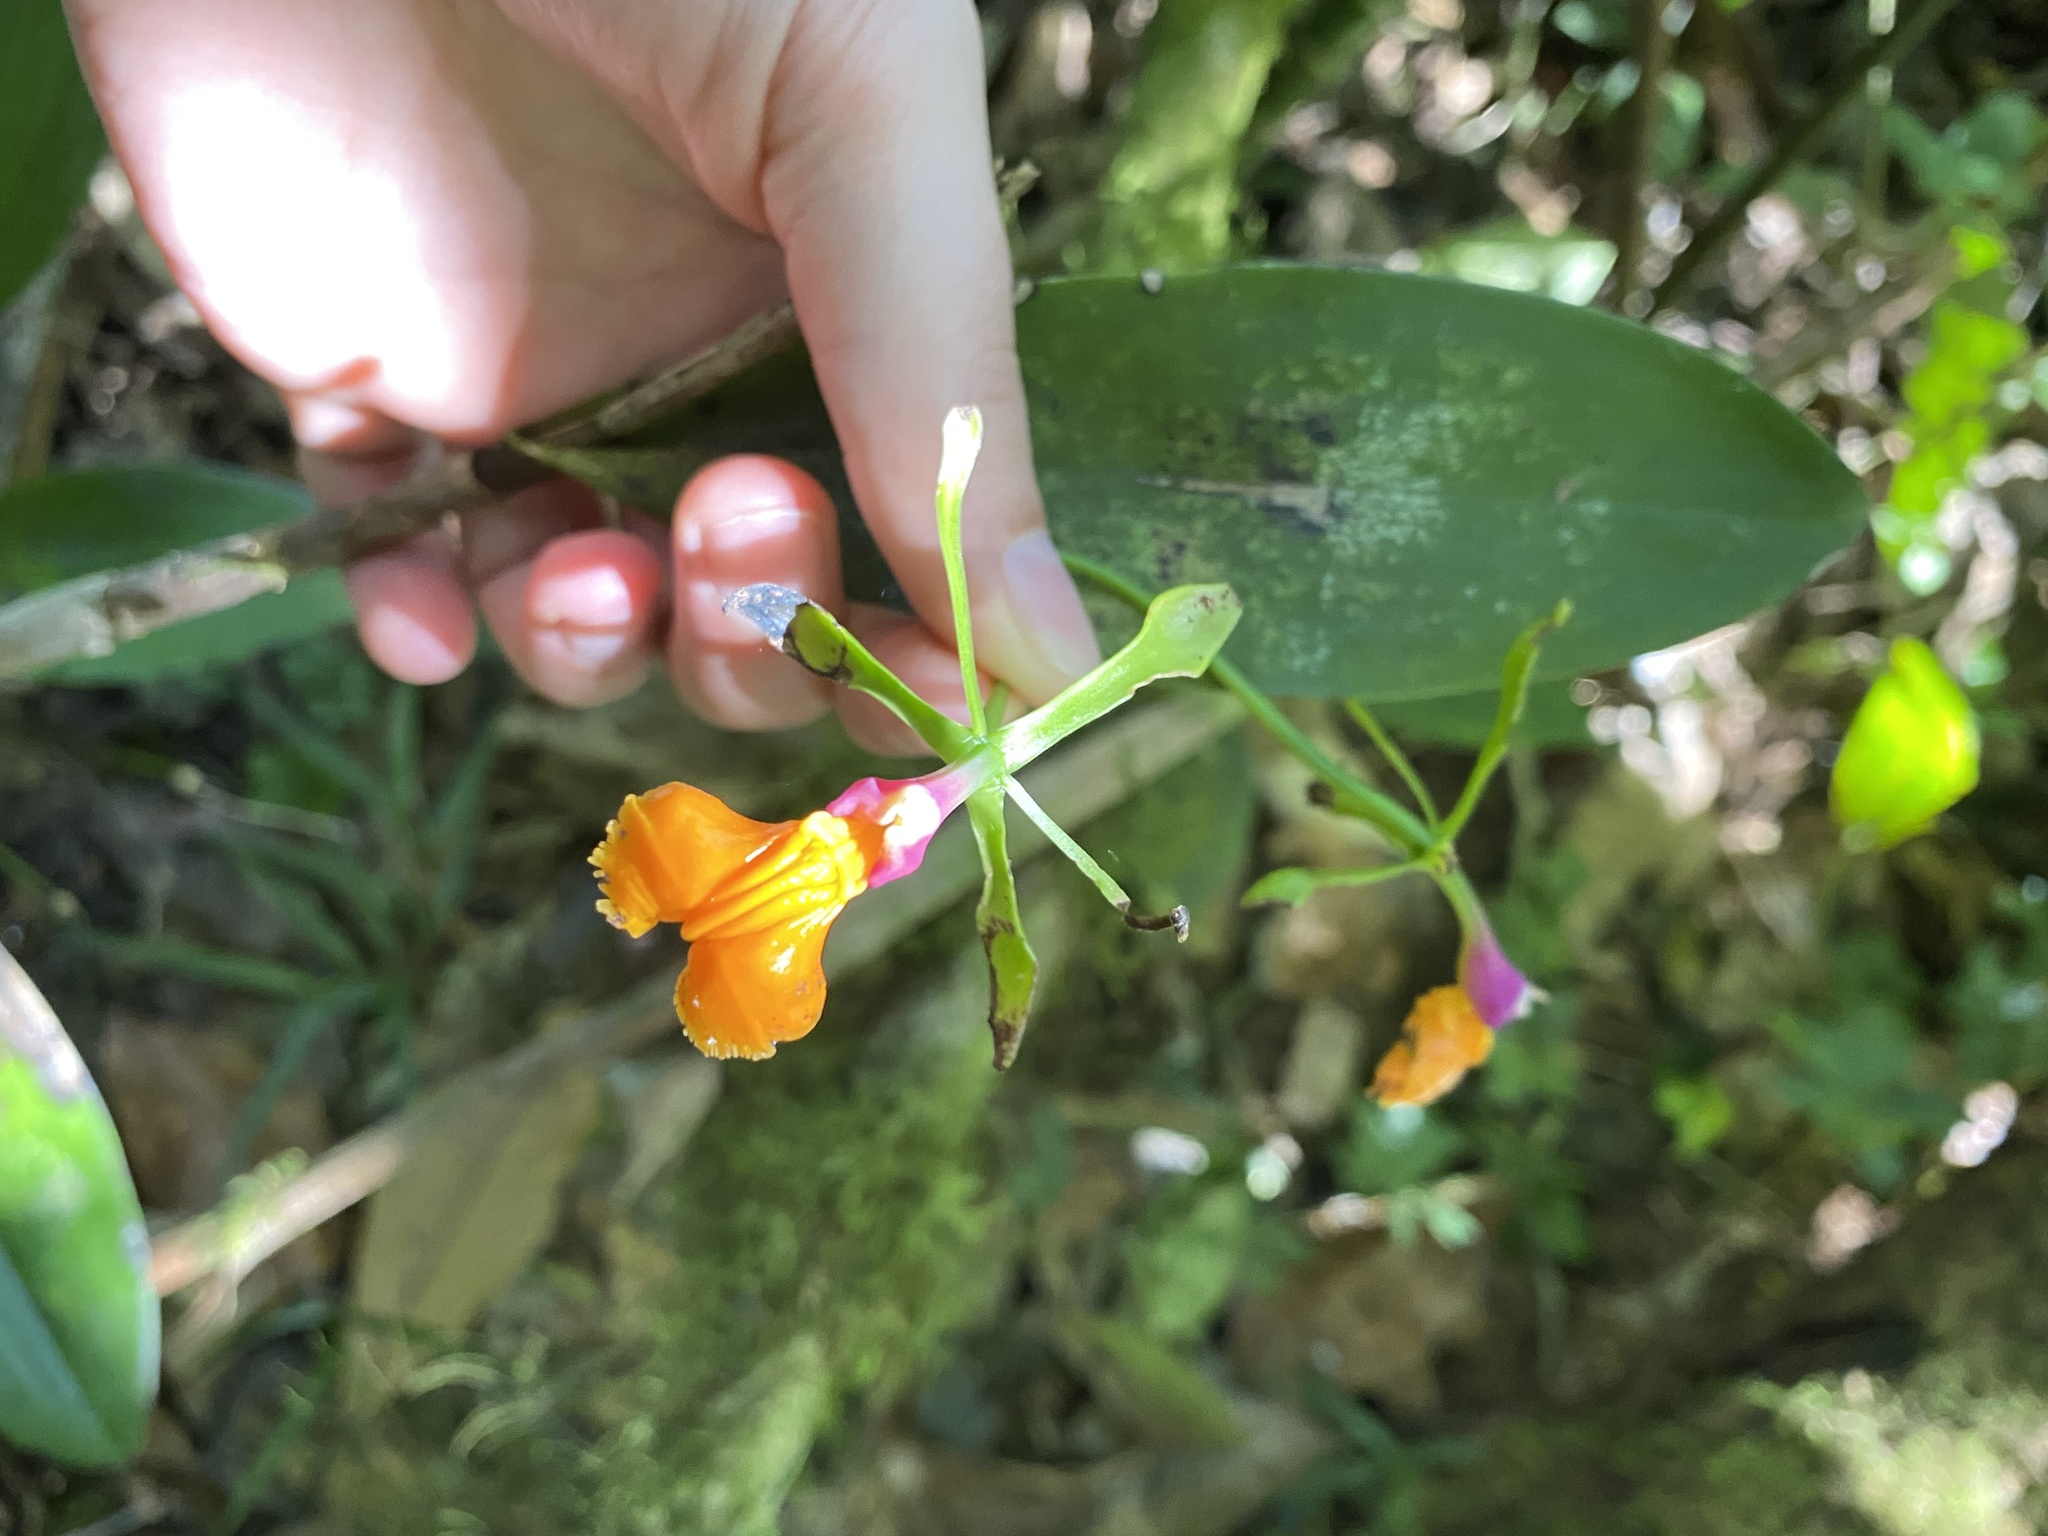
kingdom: Plantae
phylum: Tracheophyta
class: Liliopsida
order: Asparagales
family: Orchidaceae
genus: Epidendrum
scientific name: Epidendrum pseudepidendrum
